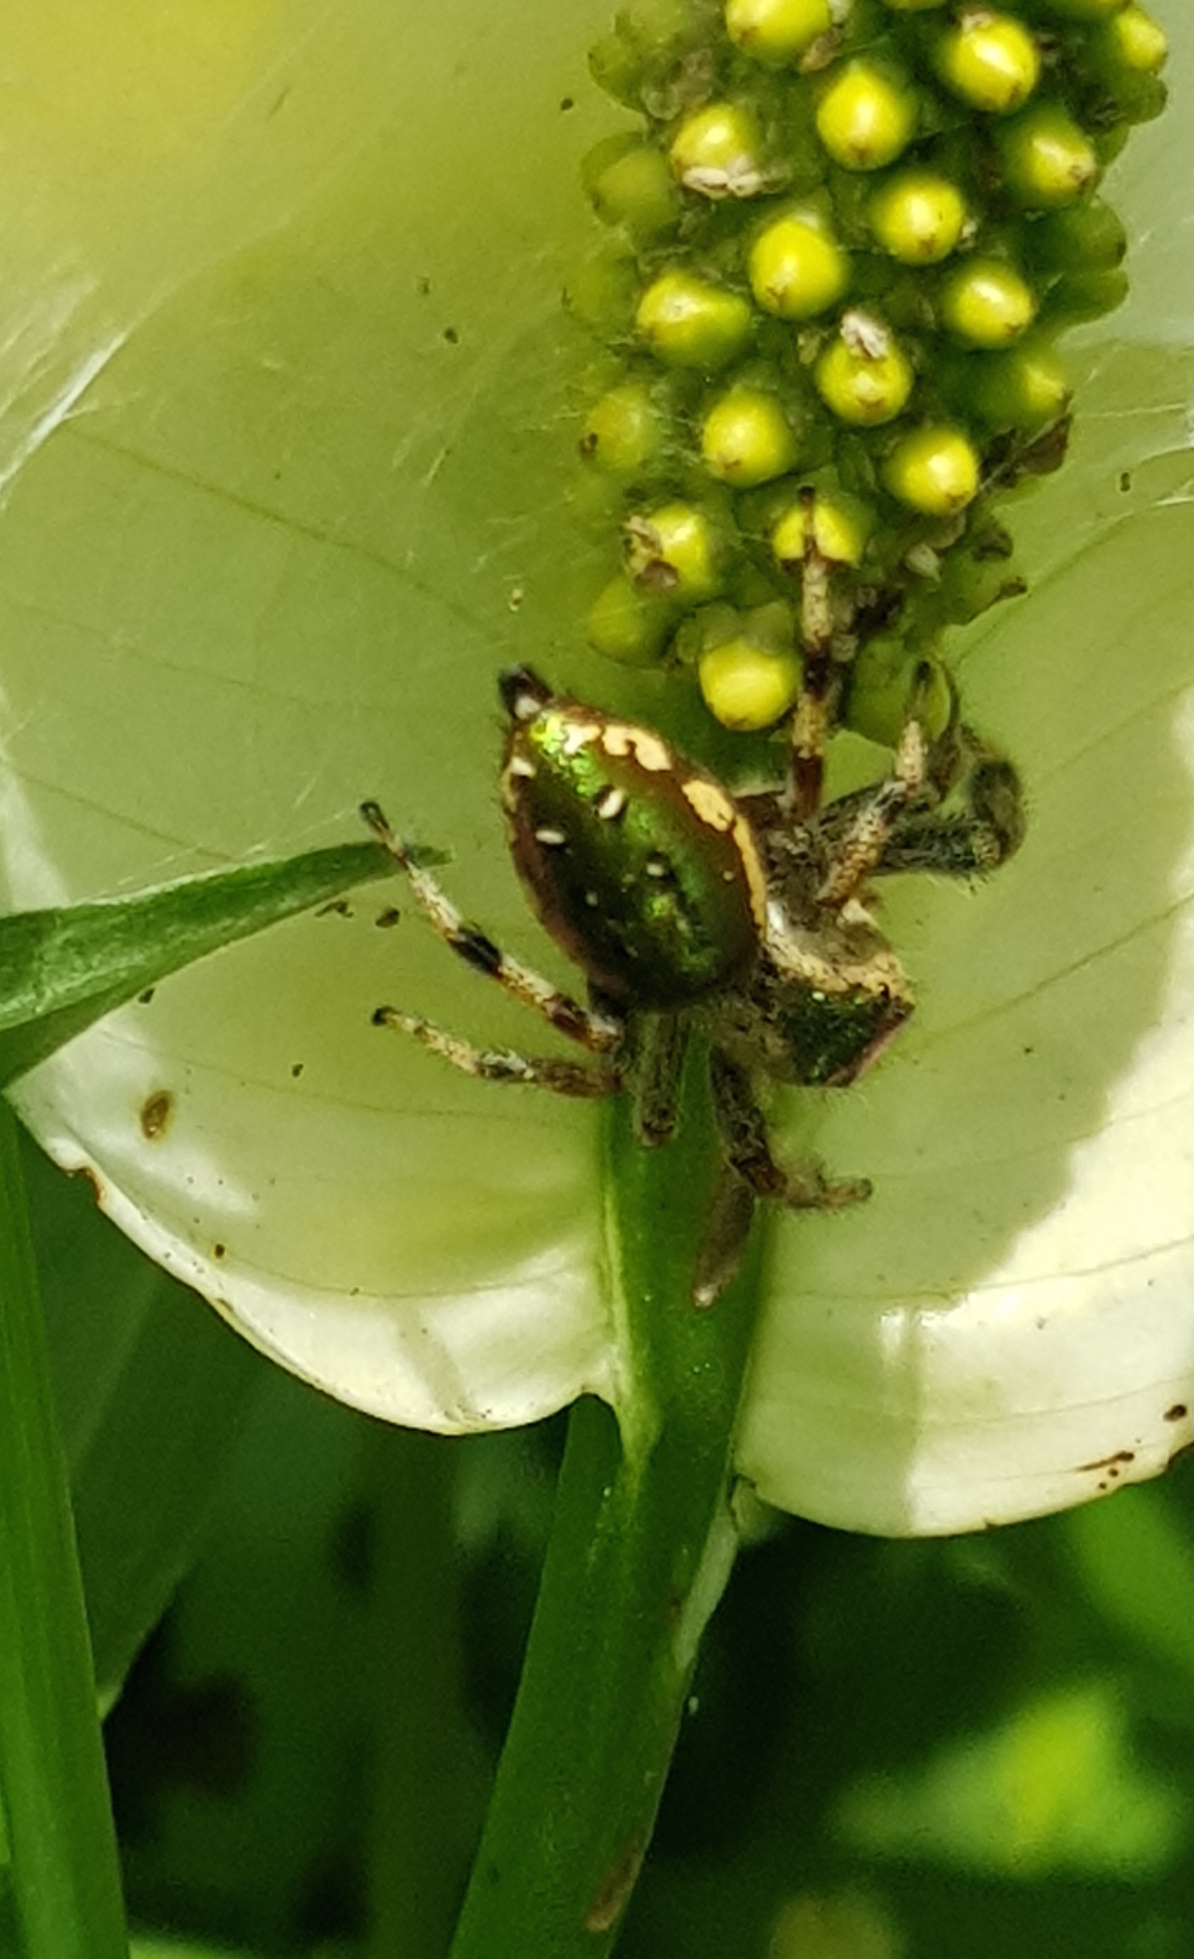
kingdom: Animalia
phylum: Arthropoda
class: Arachnida
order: Araneae
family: Salticidae
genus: Paraphidippus
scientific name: Paraphidippus aurantius
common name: Jumping spiders
